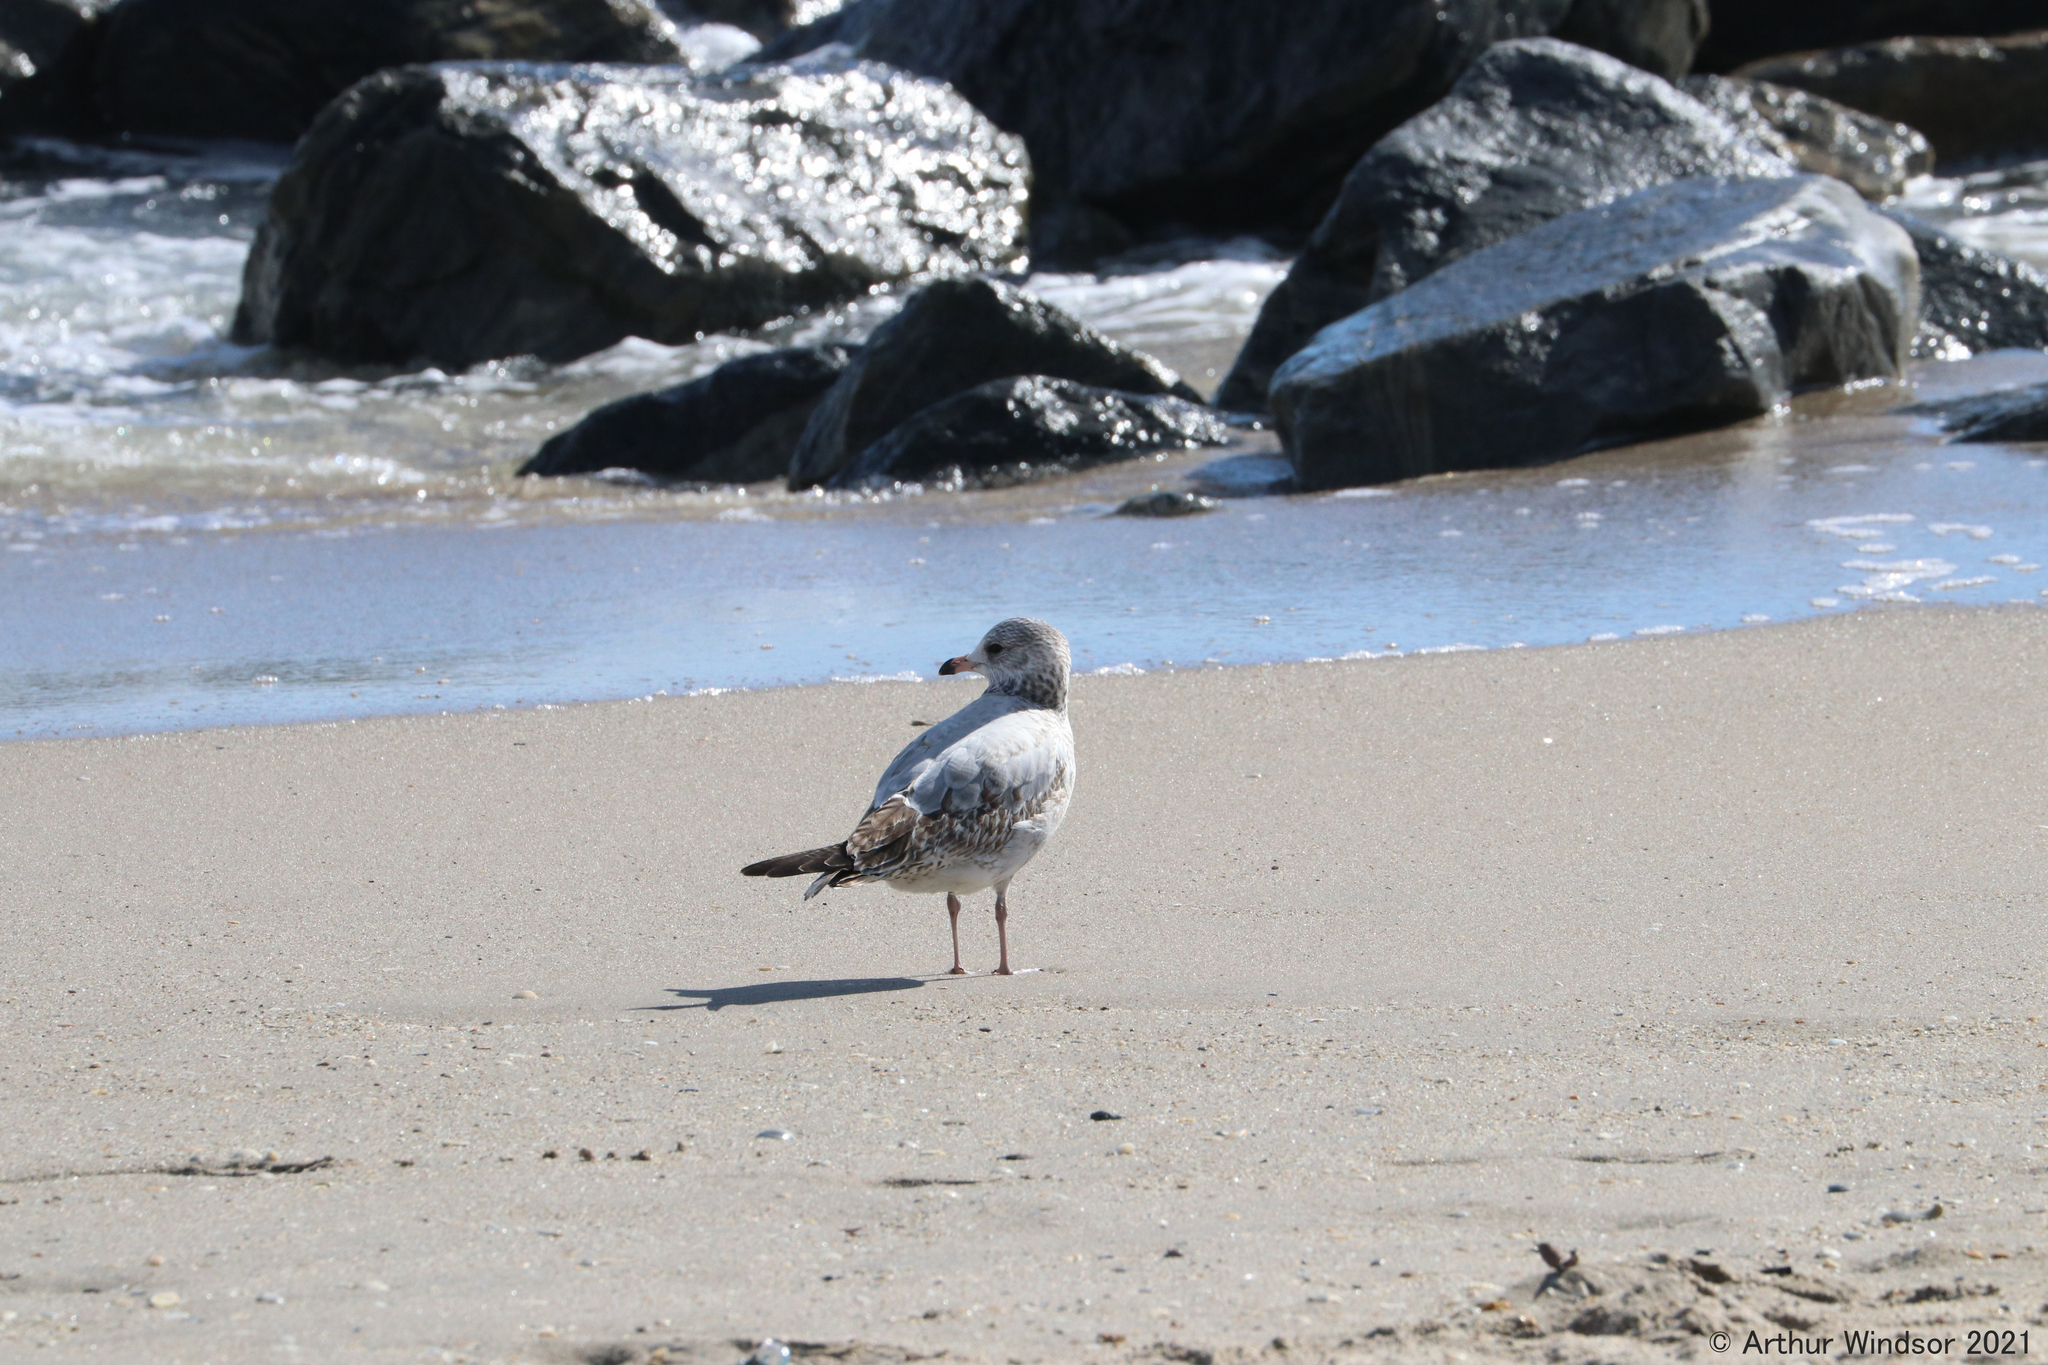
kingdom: Animalia
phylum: Chordata
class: Aves
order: Charadriiformes
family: Laridae
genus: Larus
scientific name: Larus delawarensis
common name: Ring-billed gull
